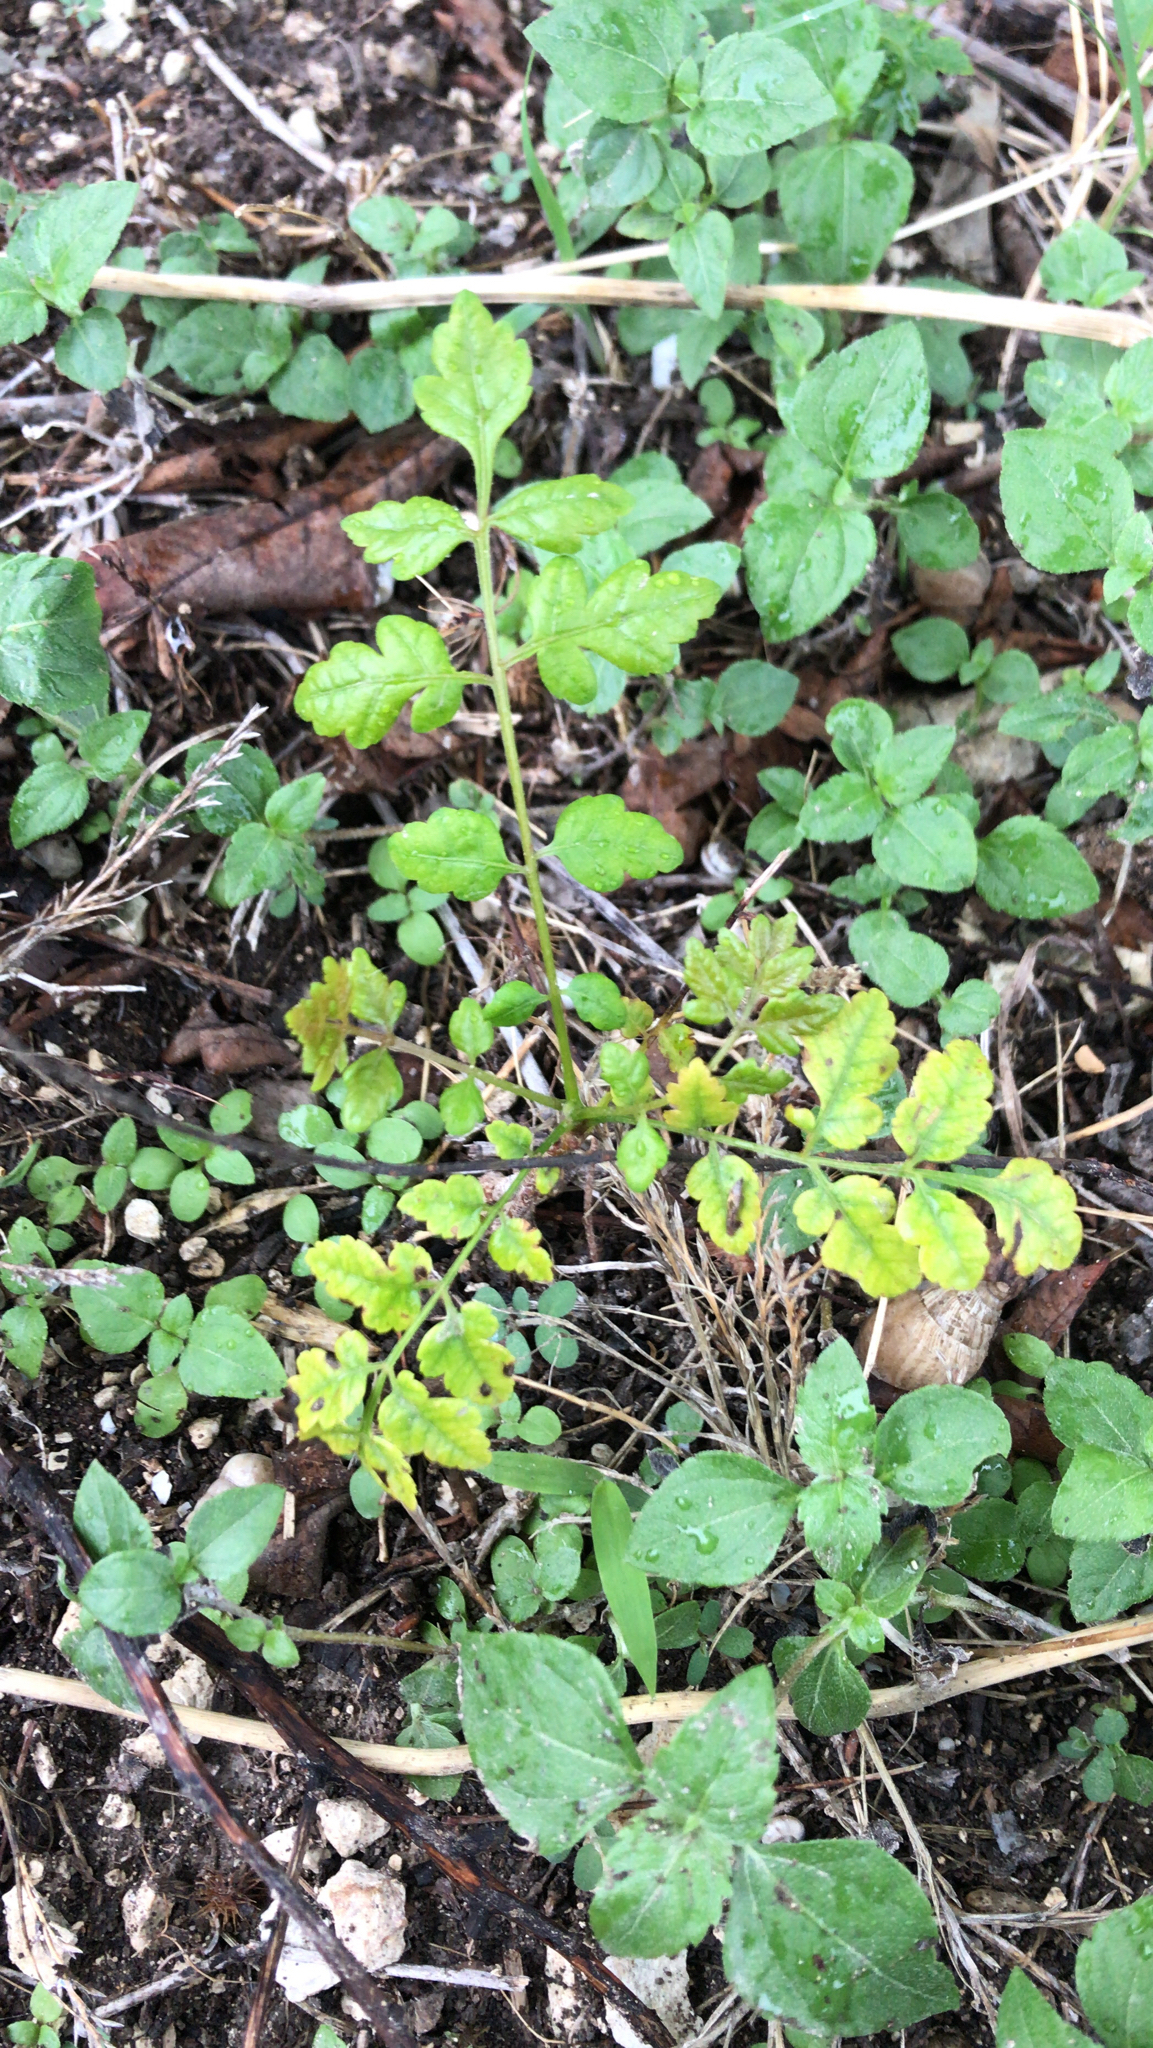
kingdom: Plantae
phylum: Tracheophyta
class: Magnoliopsida
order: Vitales
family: Vitaceae
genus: Nekemias
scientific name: Nekemias arborea
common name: Peppervine
